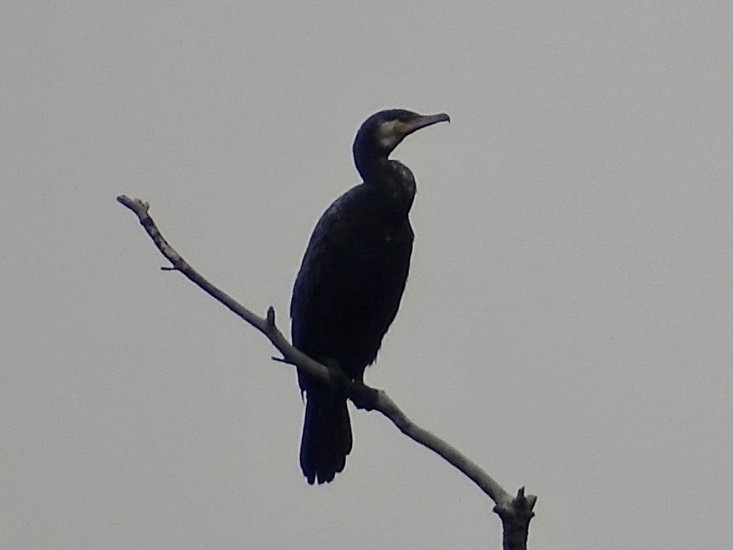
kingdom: Animalia
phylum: Chordata
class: Aves
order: Suliformes
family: Phalacrocoracidae
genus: Phalacrocorax
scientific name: Phalacrocorax carbo
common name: Great cormorant
